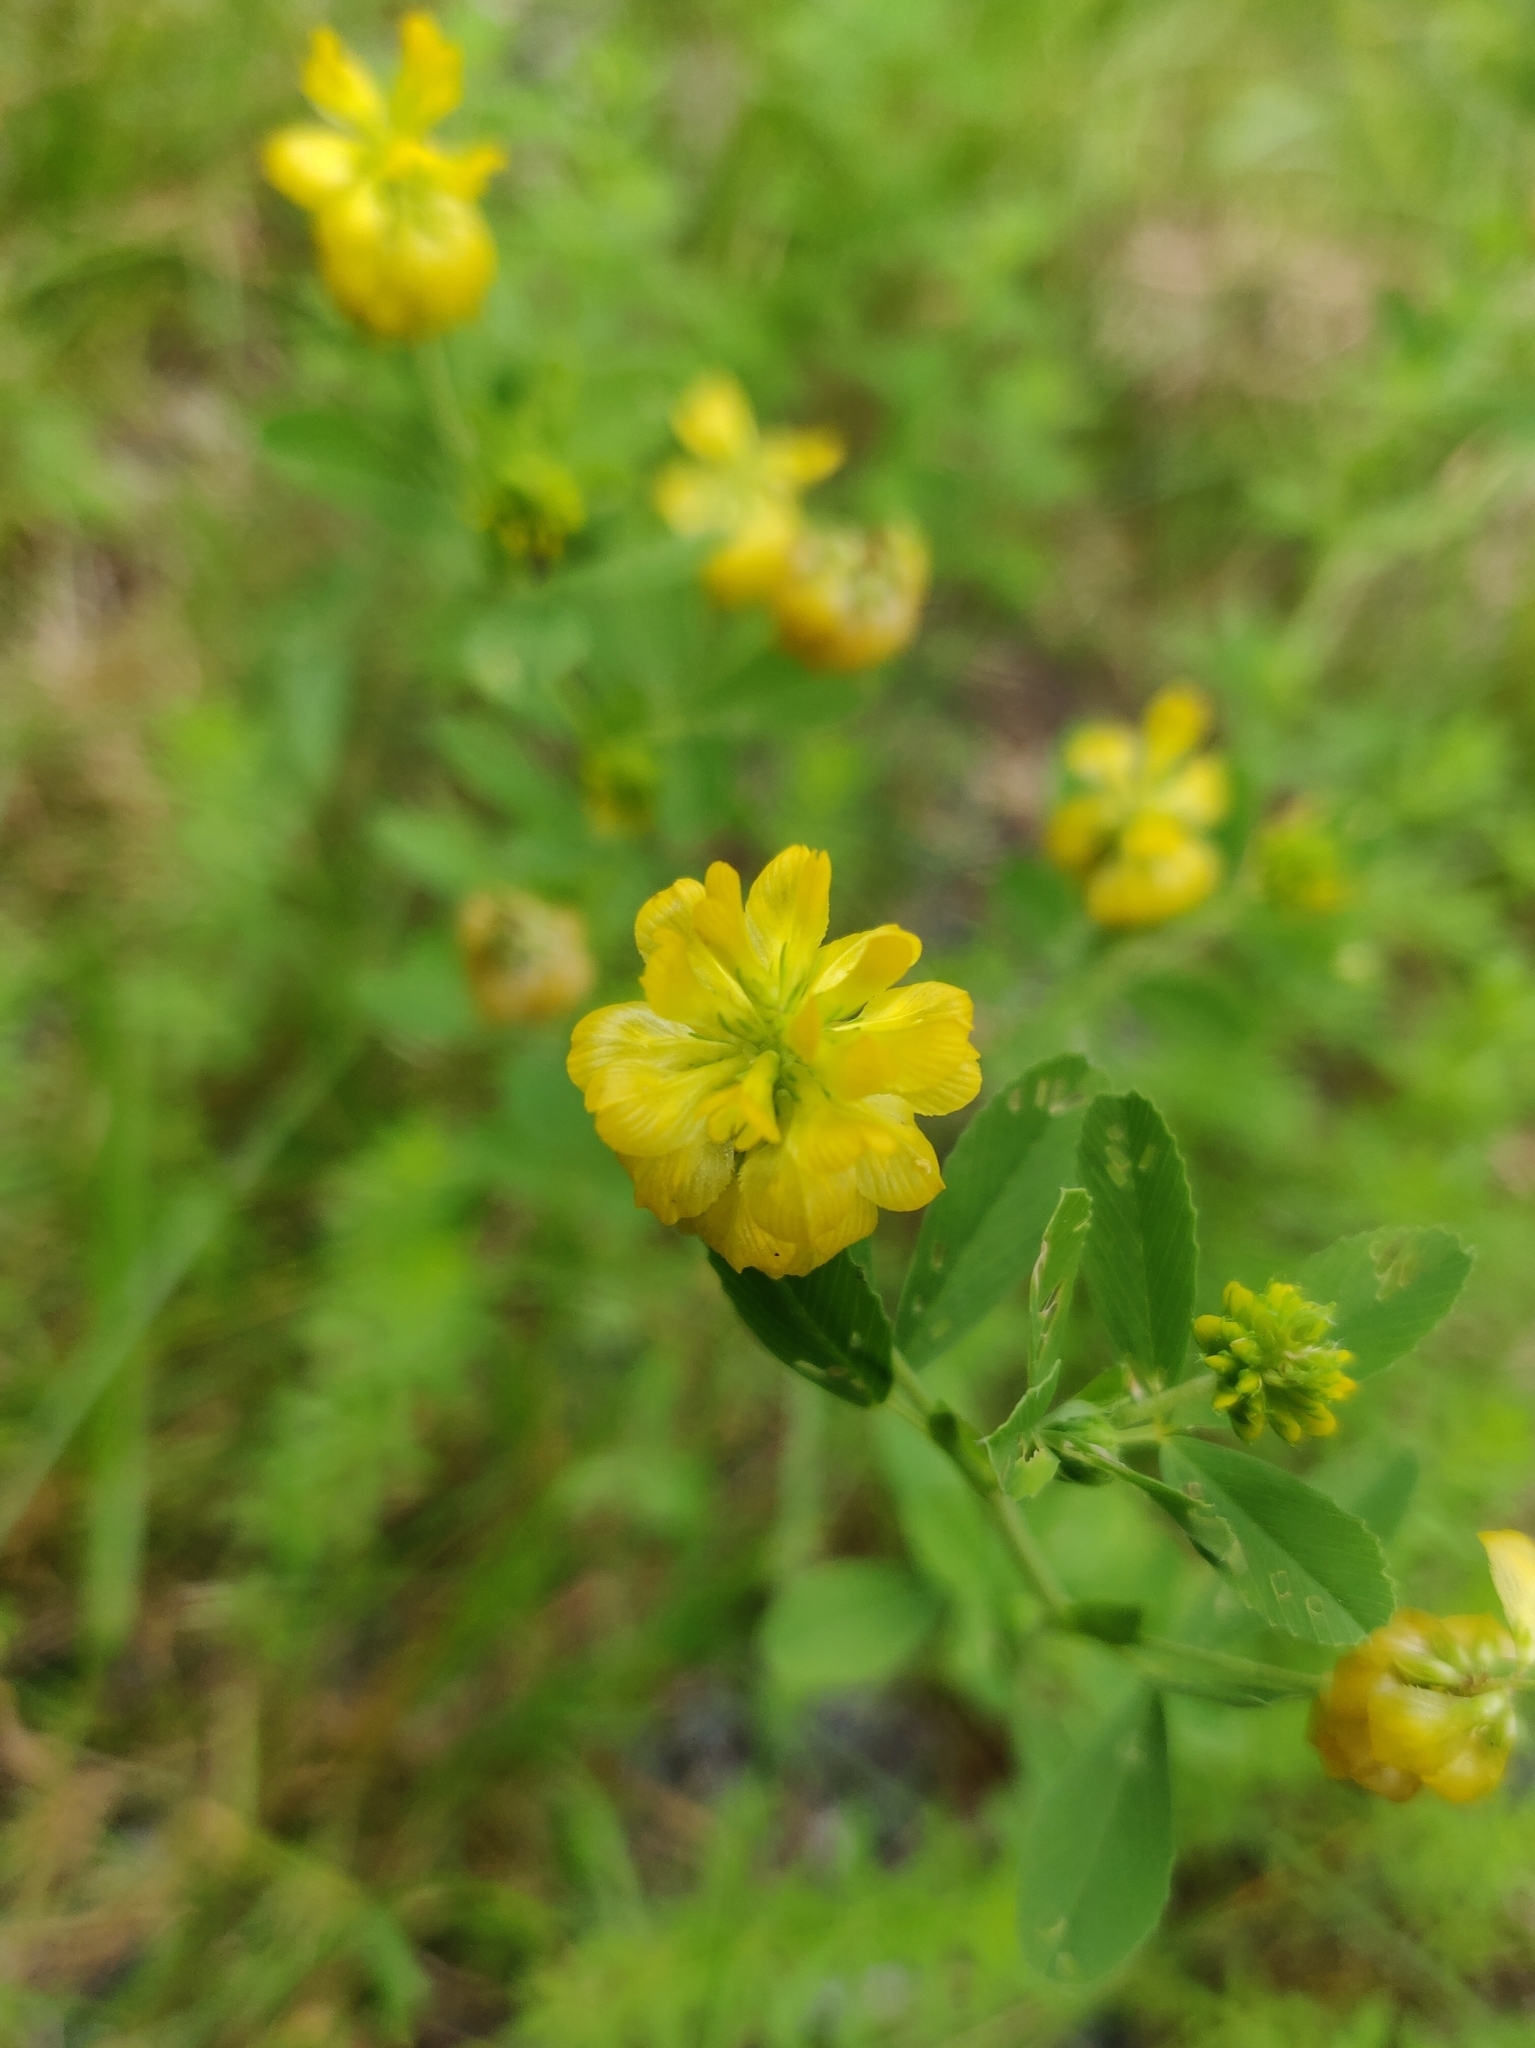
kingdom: Plantae
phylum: Tracheophyta
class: Magnoliopsida
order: Fabales
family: Fabaceae
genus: Trifolium
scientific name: Trifolium aureum
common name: Golden clover
